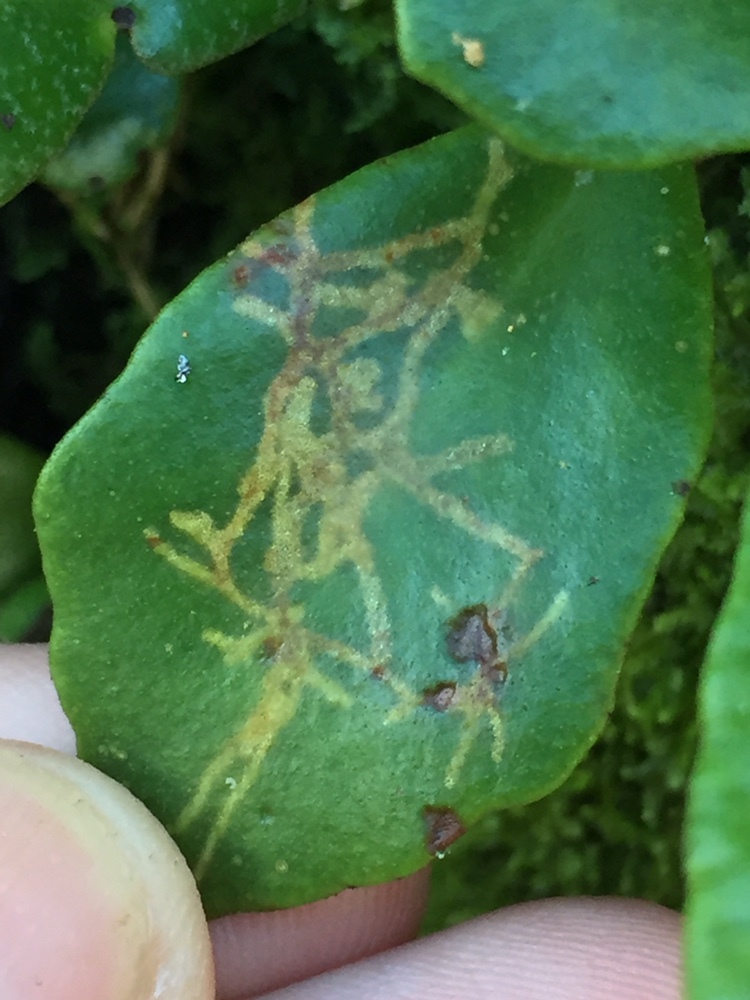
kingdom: Animalia
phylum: Arthropoda
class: Insecta
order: Lepidoptera
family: Tortricidae
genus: Philocryptica
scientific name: Philocryptica polypodii
